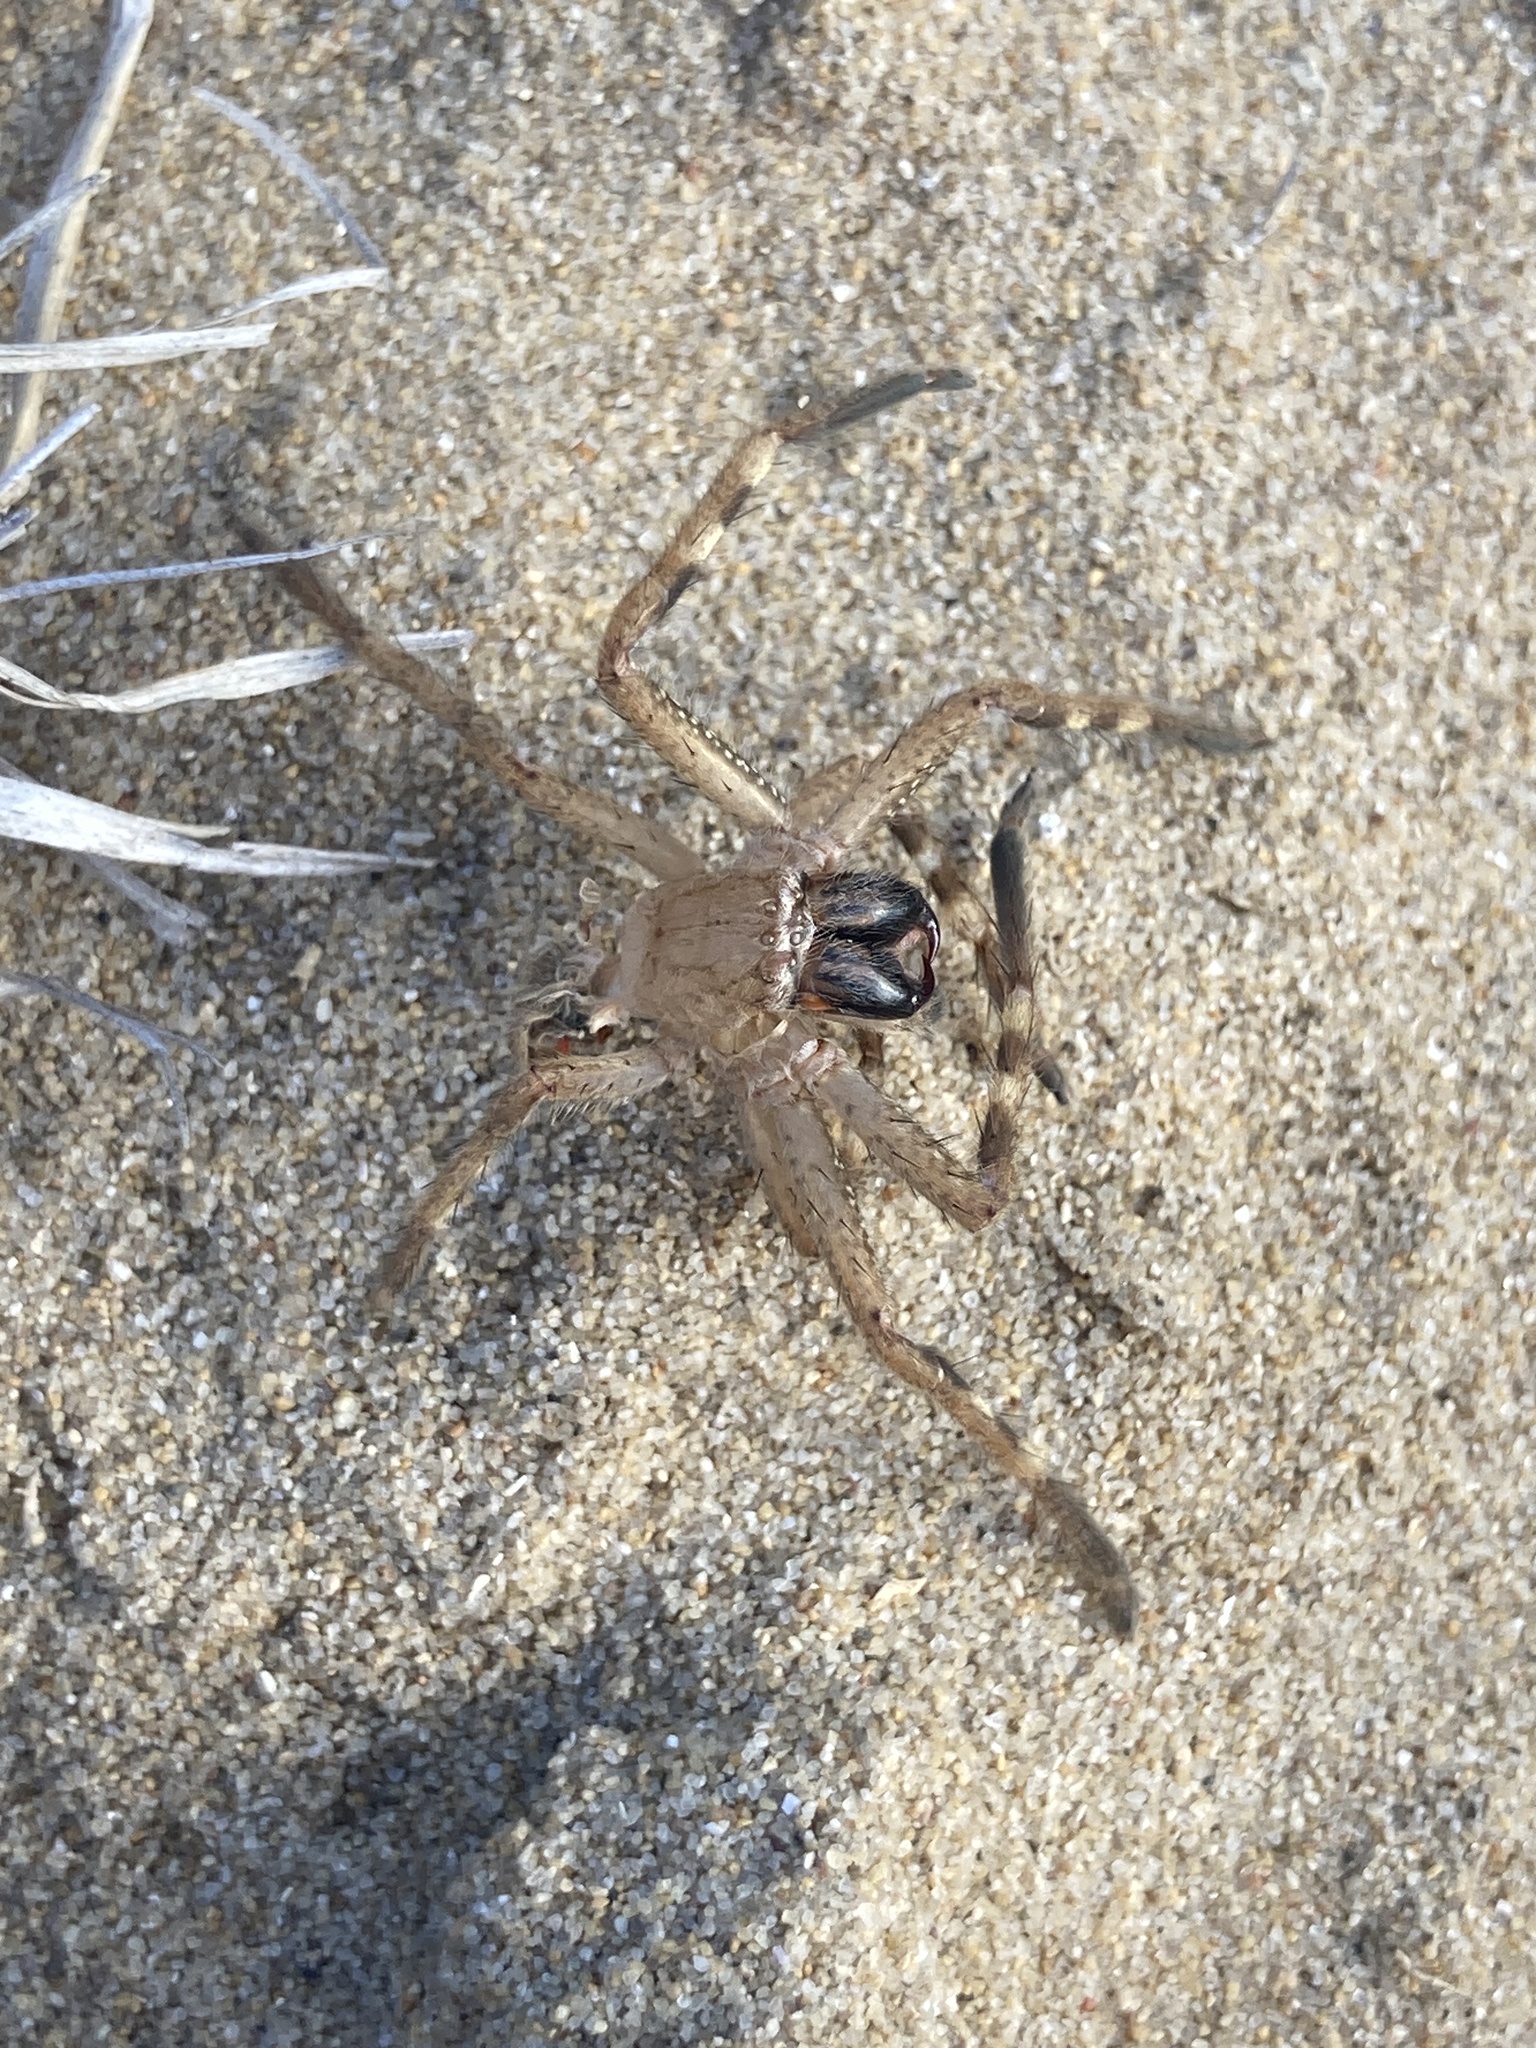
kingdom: Animalia
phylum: Arthropoda
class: Arachnida
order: Araneae
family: Sparassidae
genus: Neosparassus
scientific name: Neosparassus calligaster
